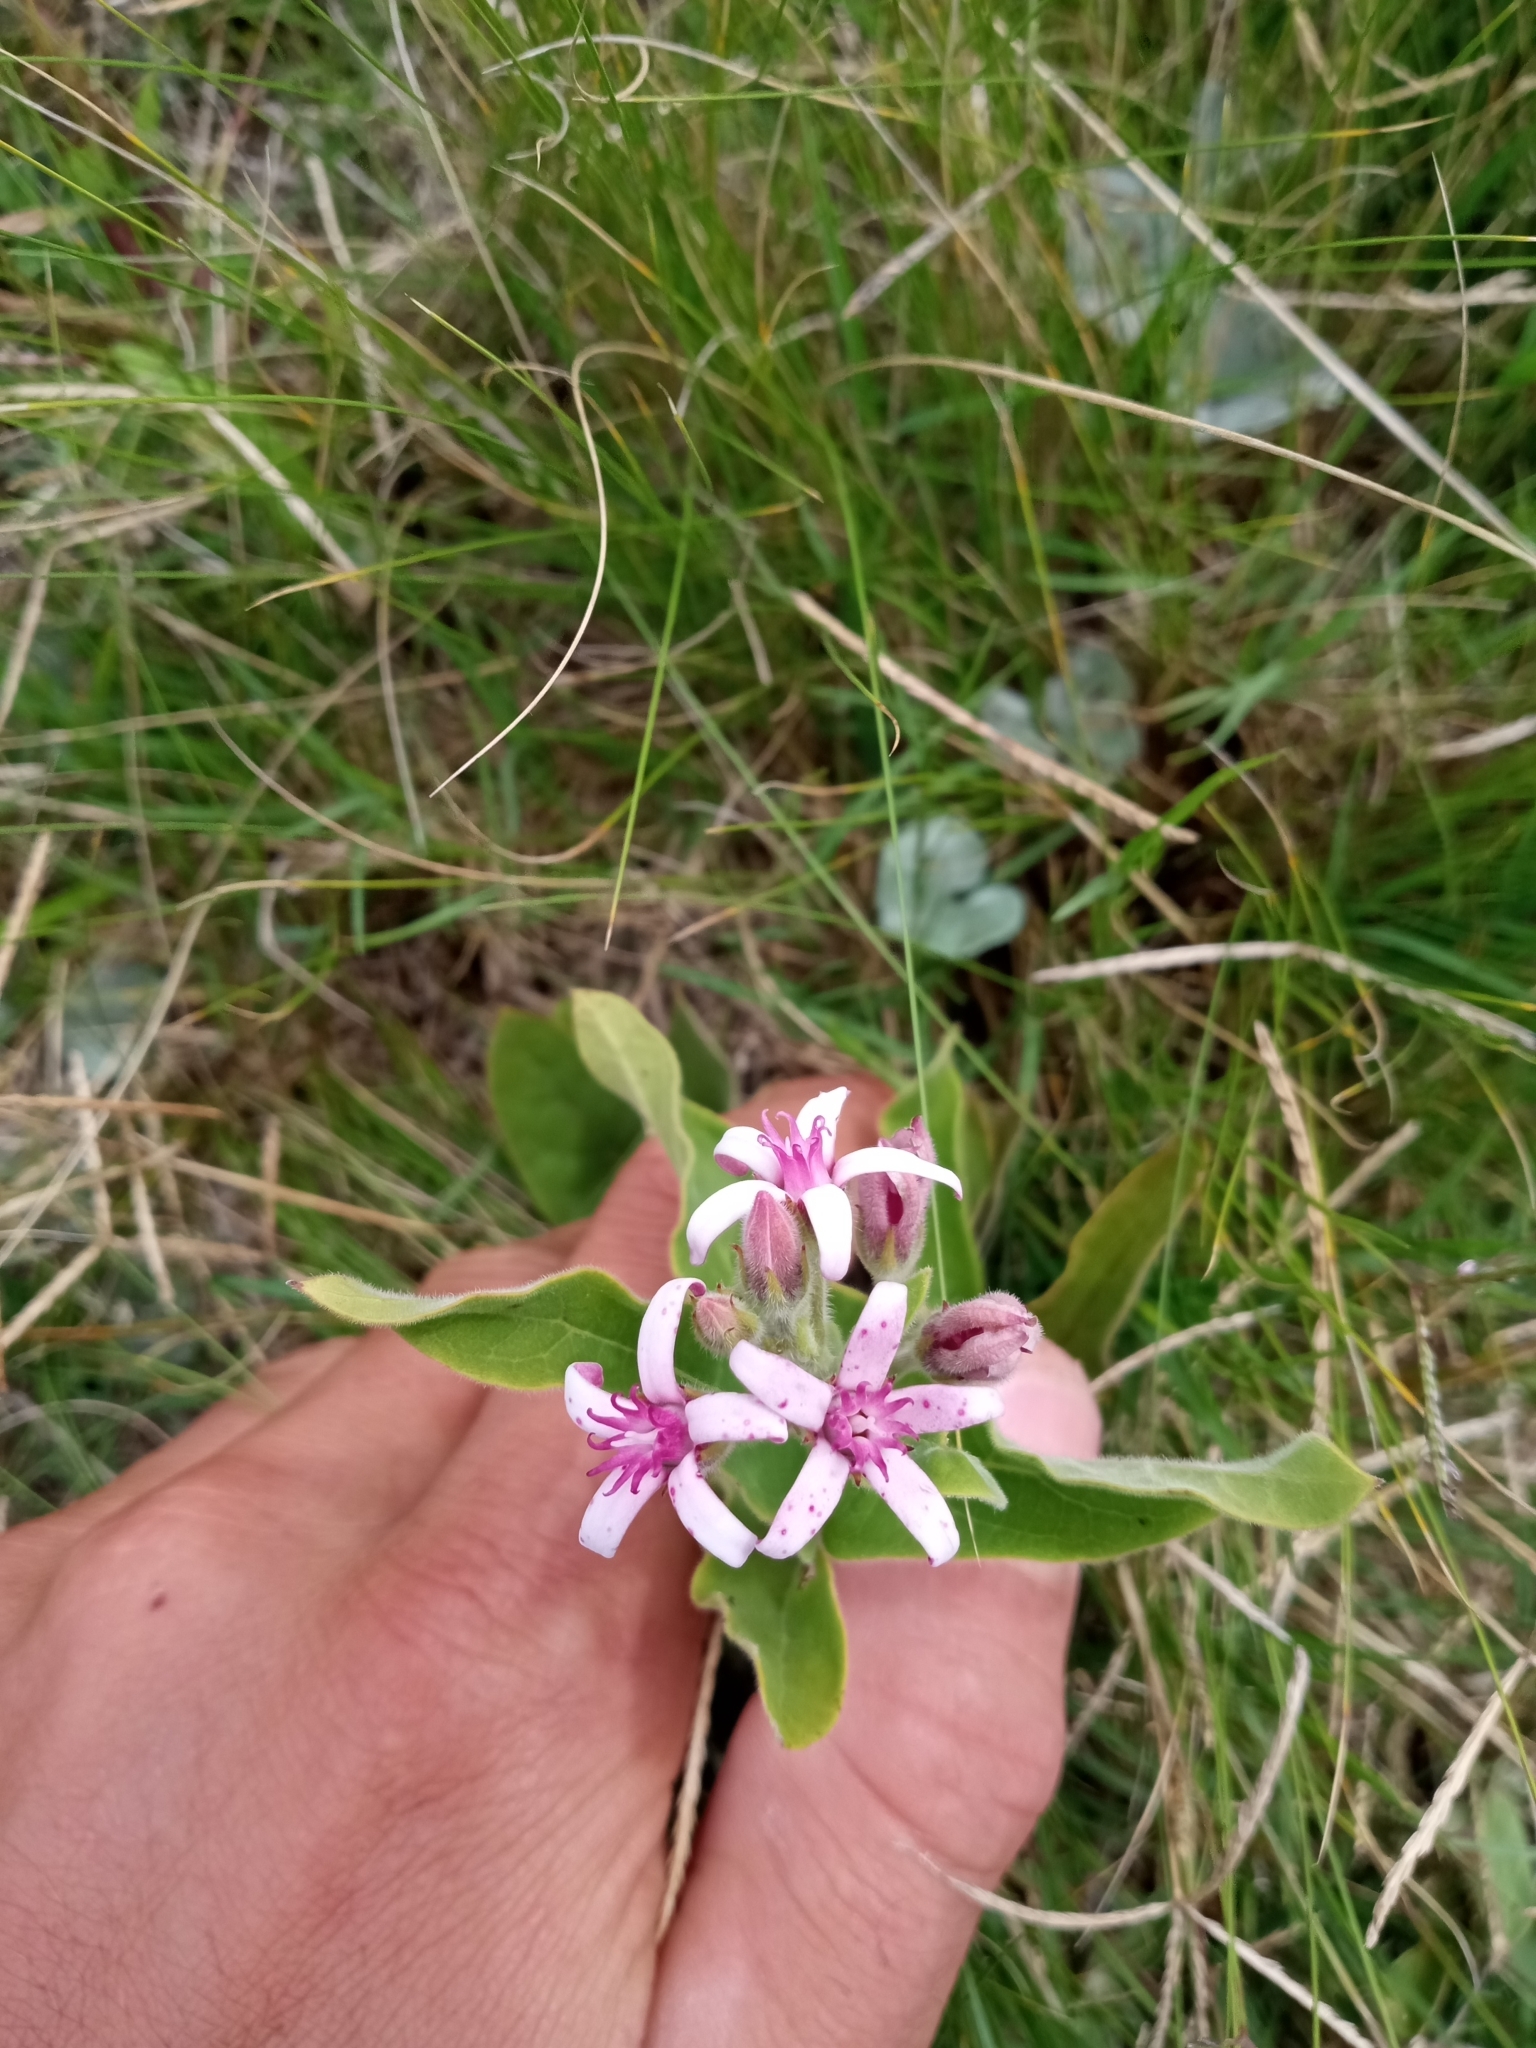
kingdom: Plantae
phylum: Tracheophyta
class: Magnoliopsida
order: Gentianales
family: Apocynaceae
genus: Oxypetalum
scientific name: Oxypetalum solanoides
